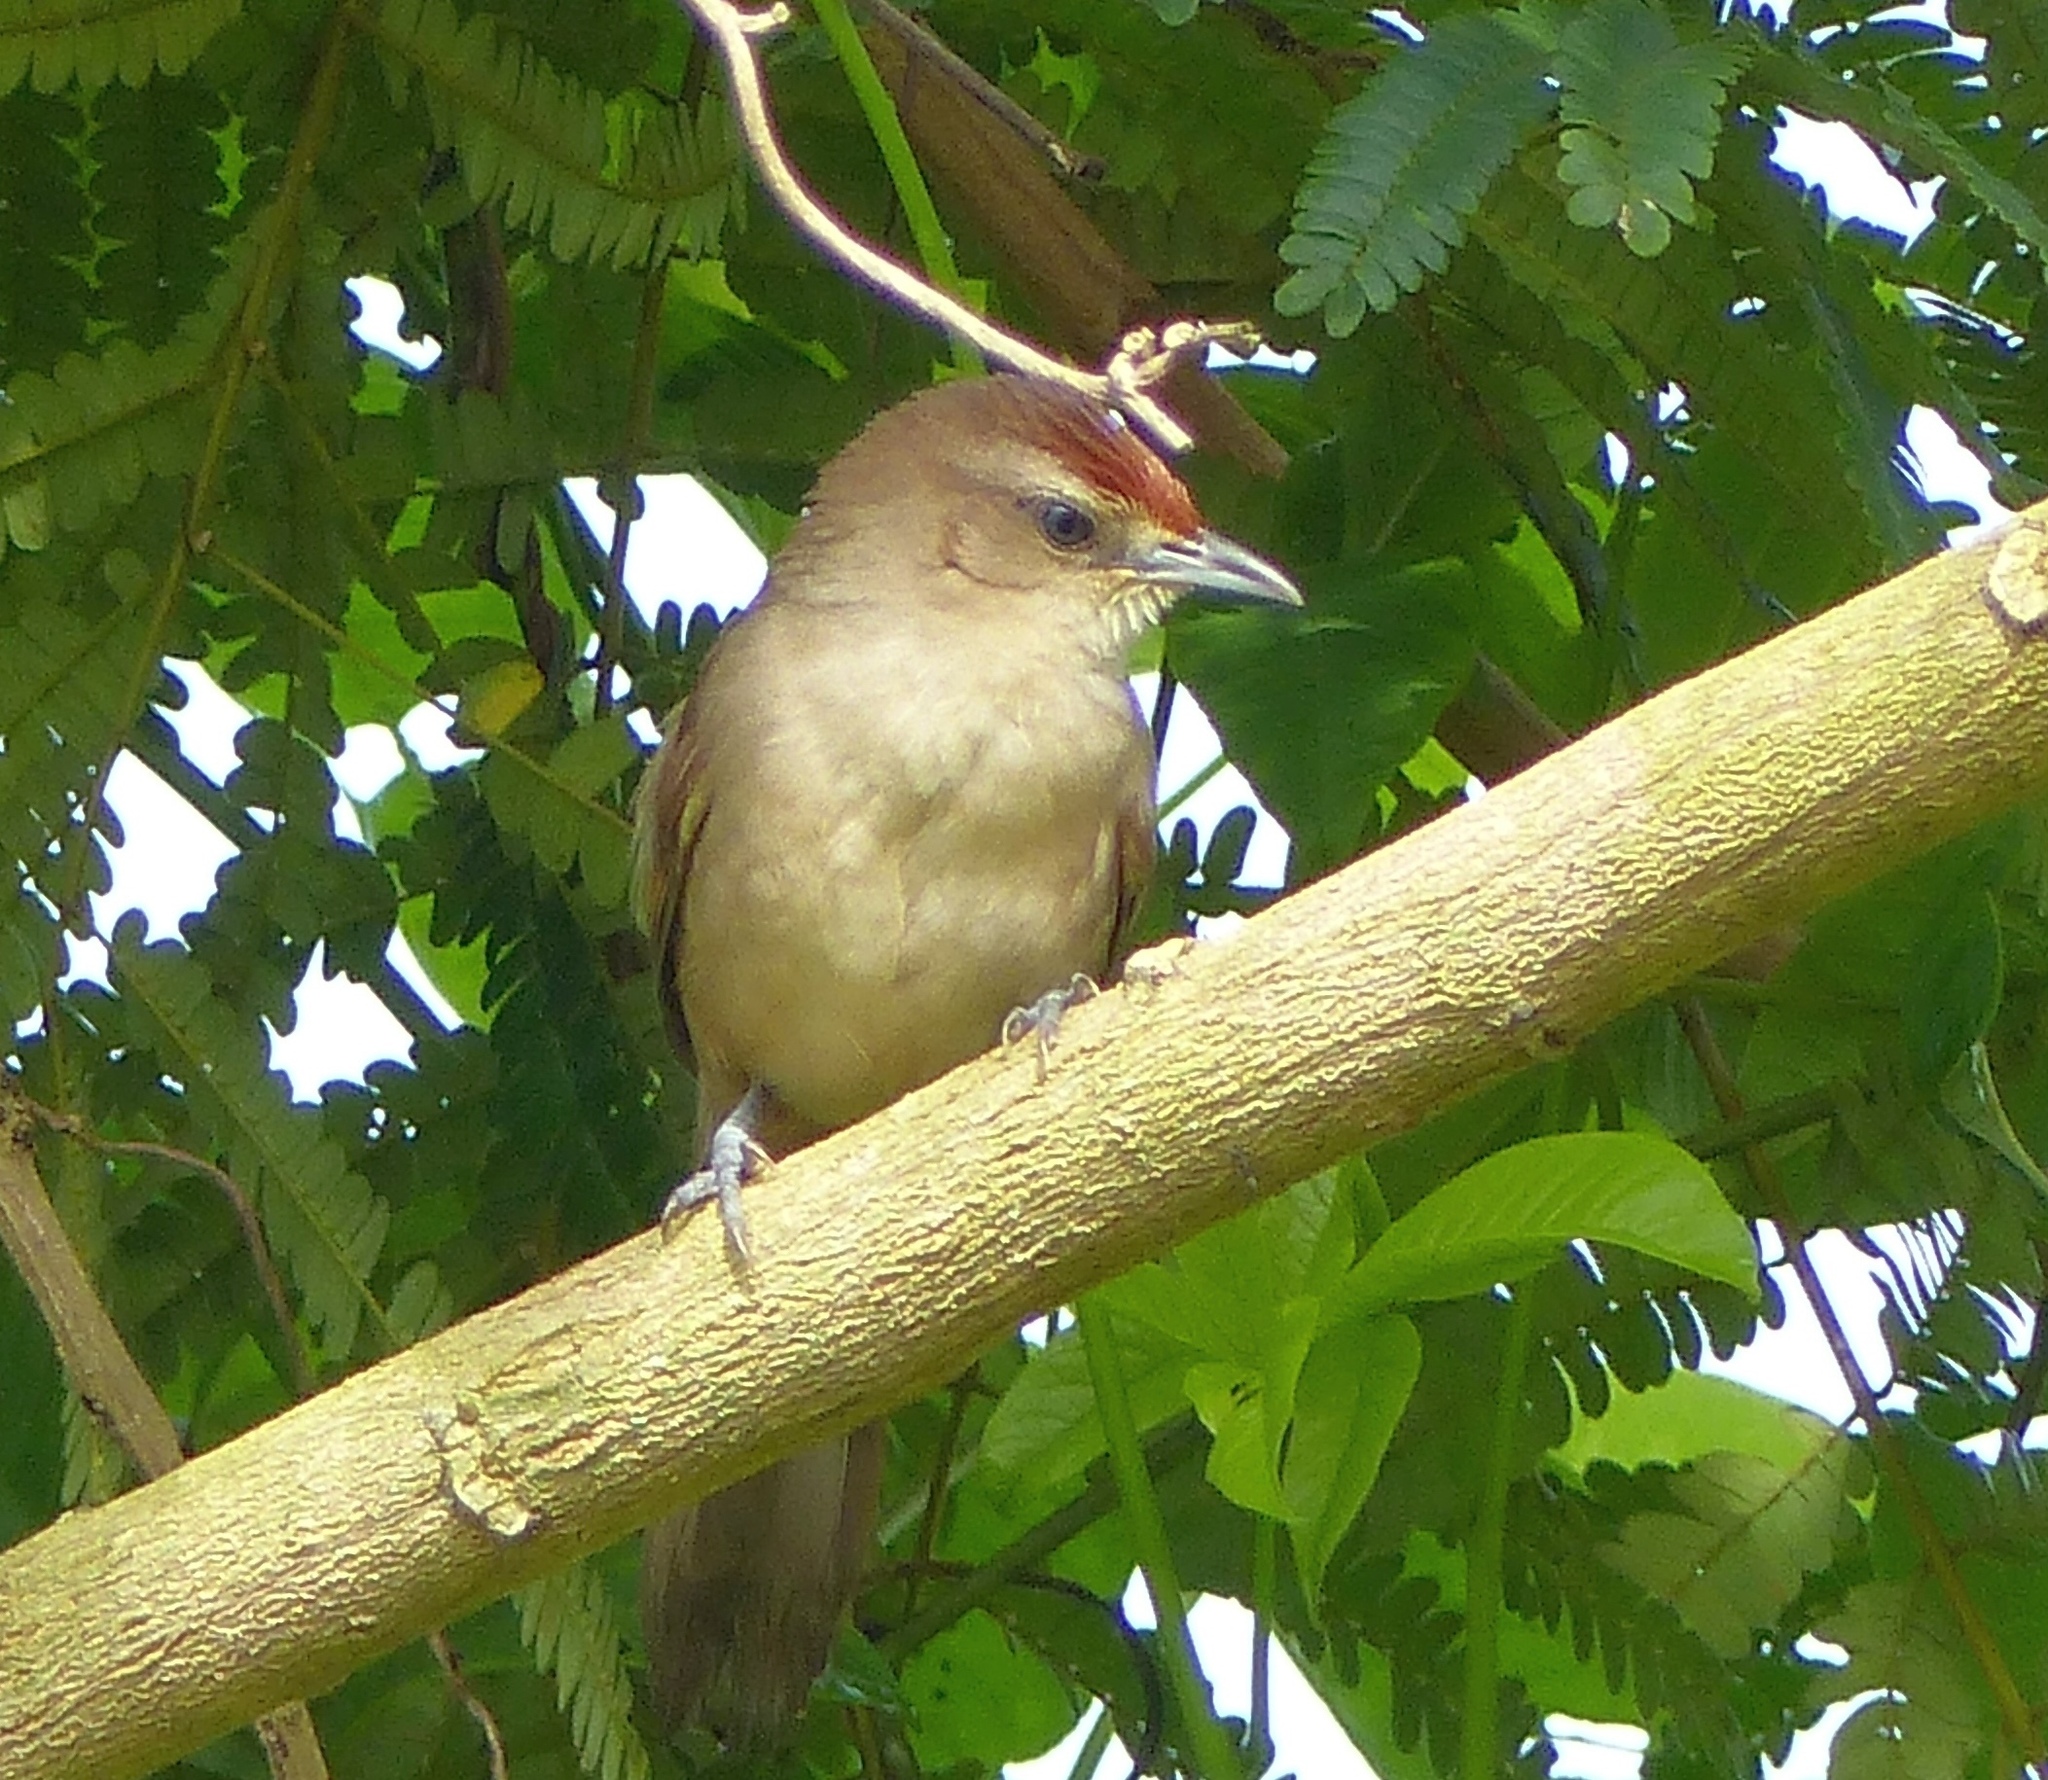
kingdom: Animalia
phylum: Chordata
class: Aves
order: Passeriformes
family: Furnariidae
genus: Phacellodomus
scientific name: Phacellodomus rufifrons
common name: Rufous-fronted thornbird
